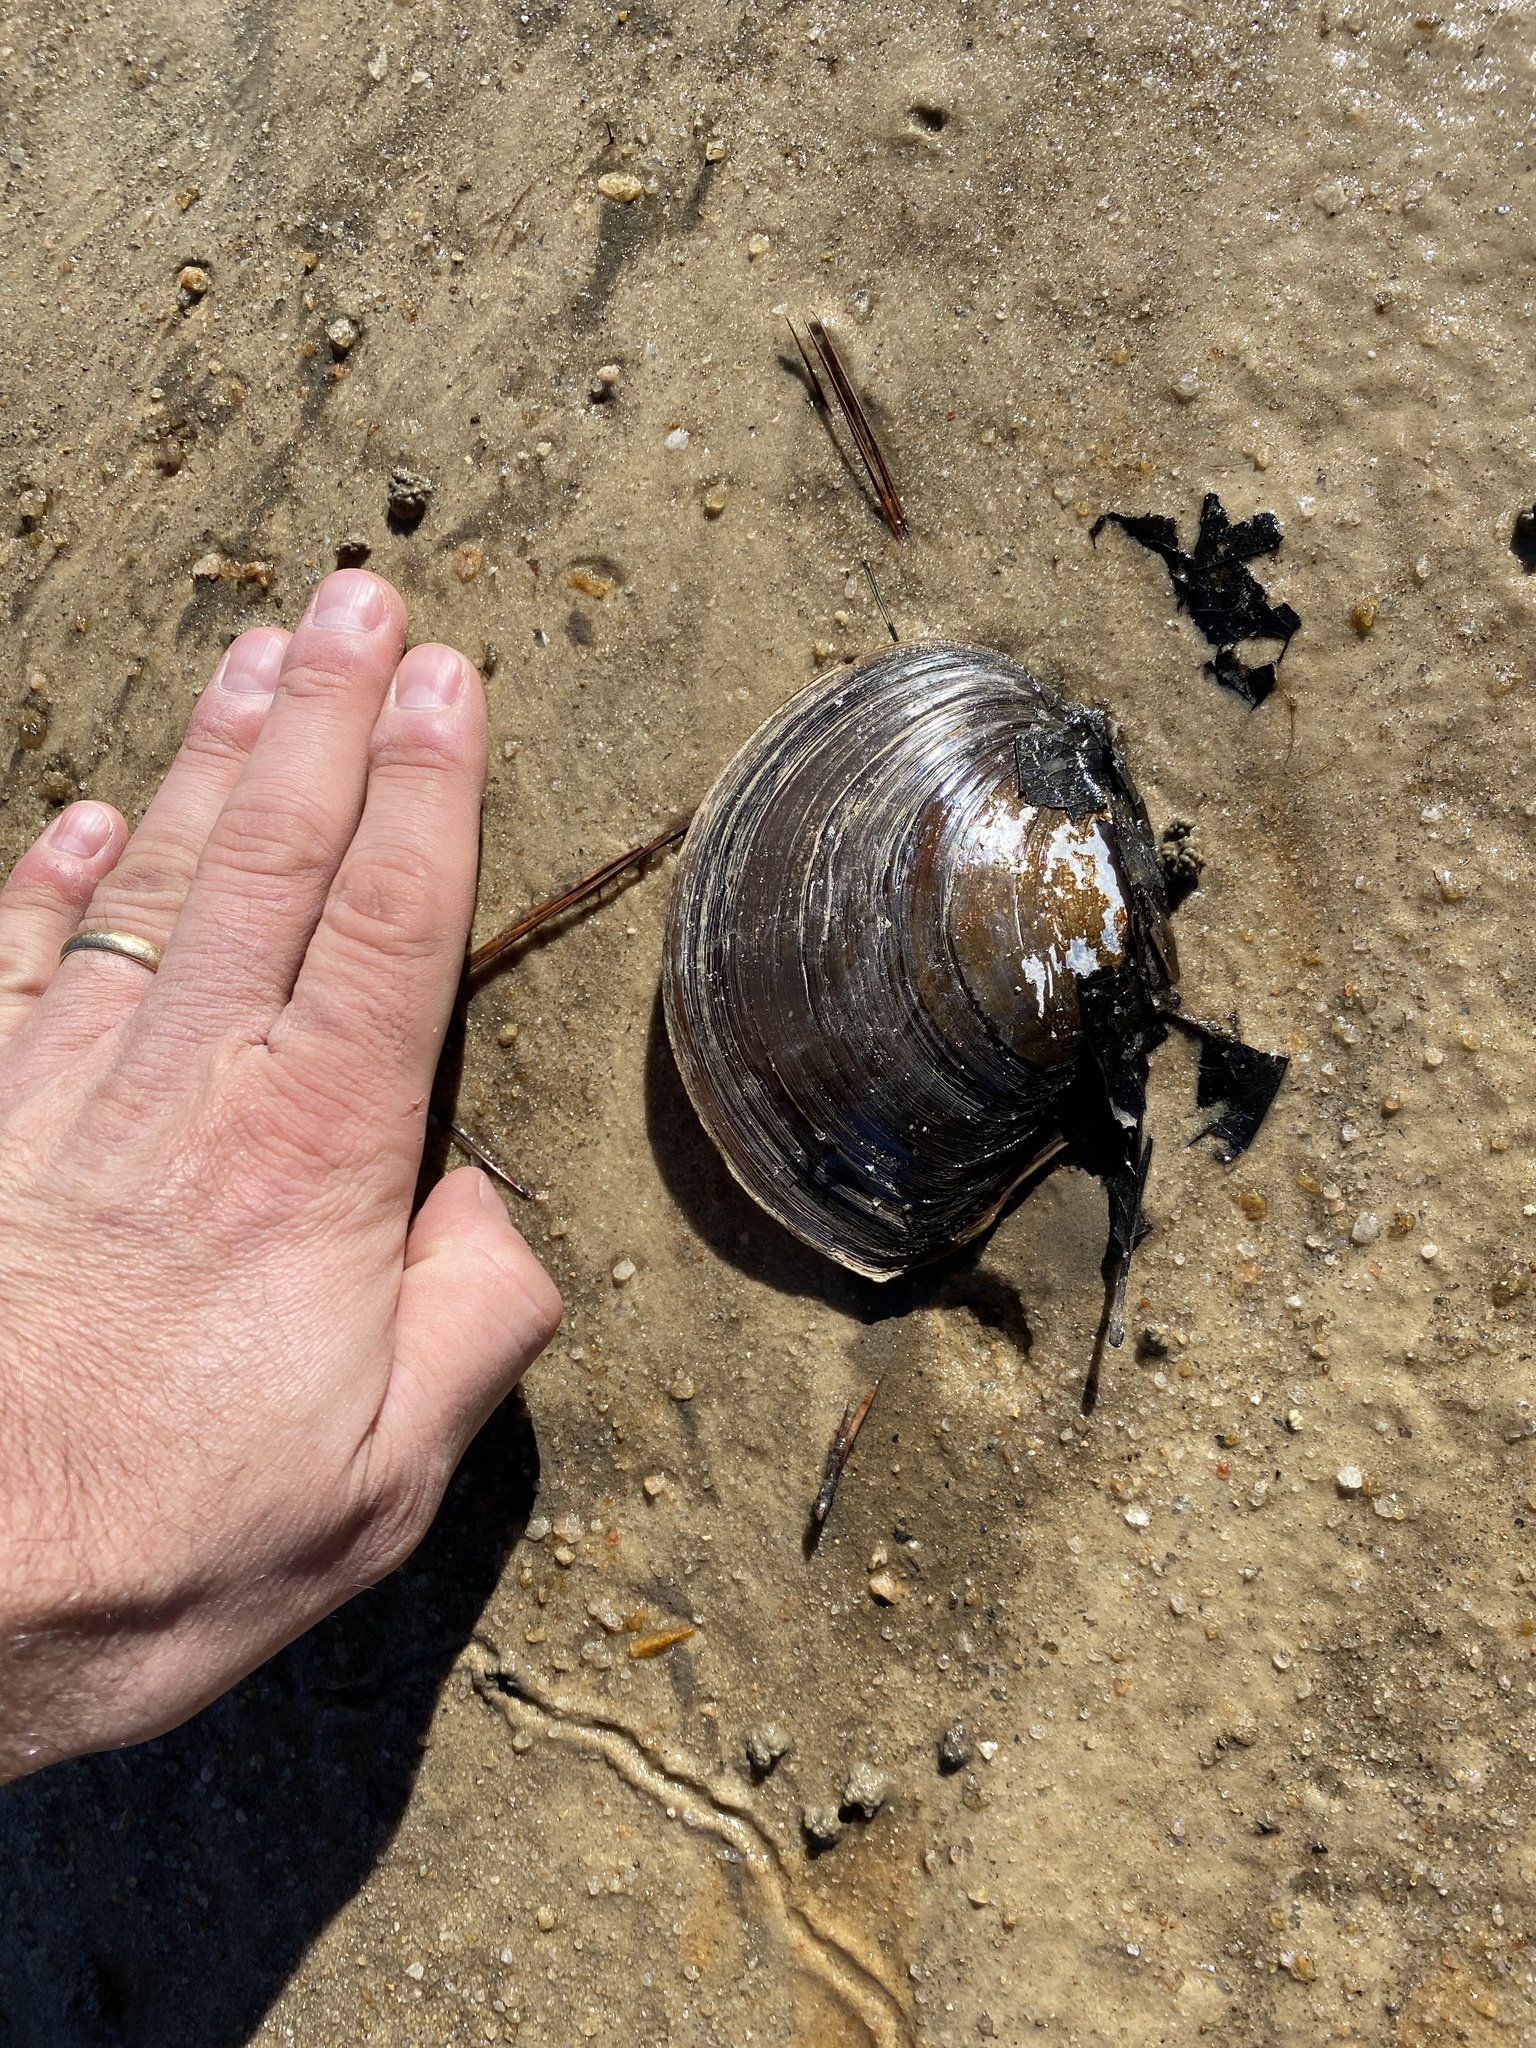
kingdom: Animalia
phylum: Mollusca
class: Bivalvia
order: Unionida
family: Unionidae
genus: Utterbackiana
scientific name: Utterbackiana suborbiculata
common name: Flat floater
